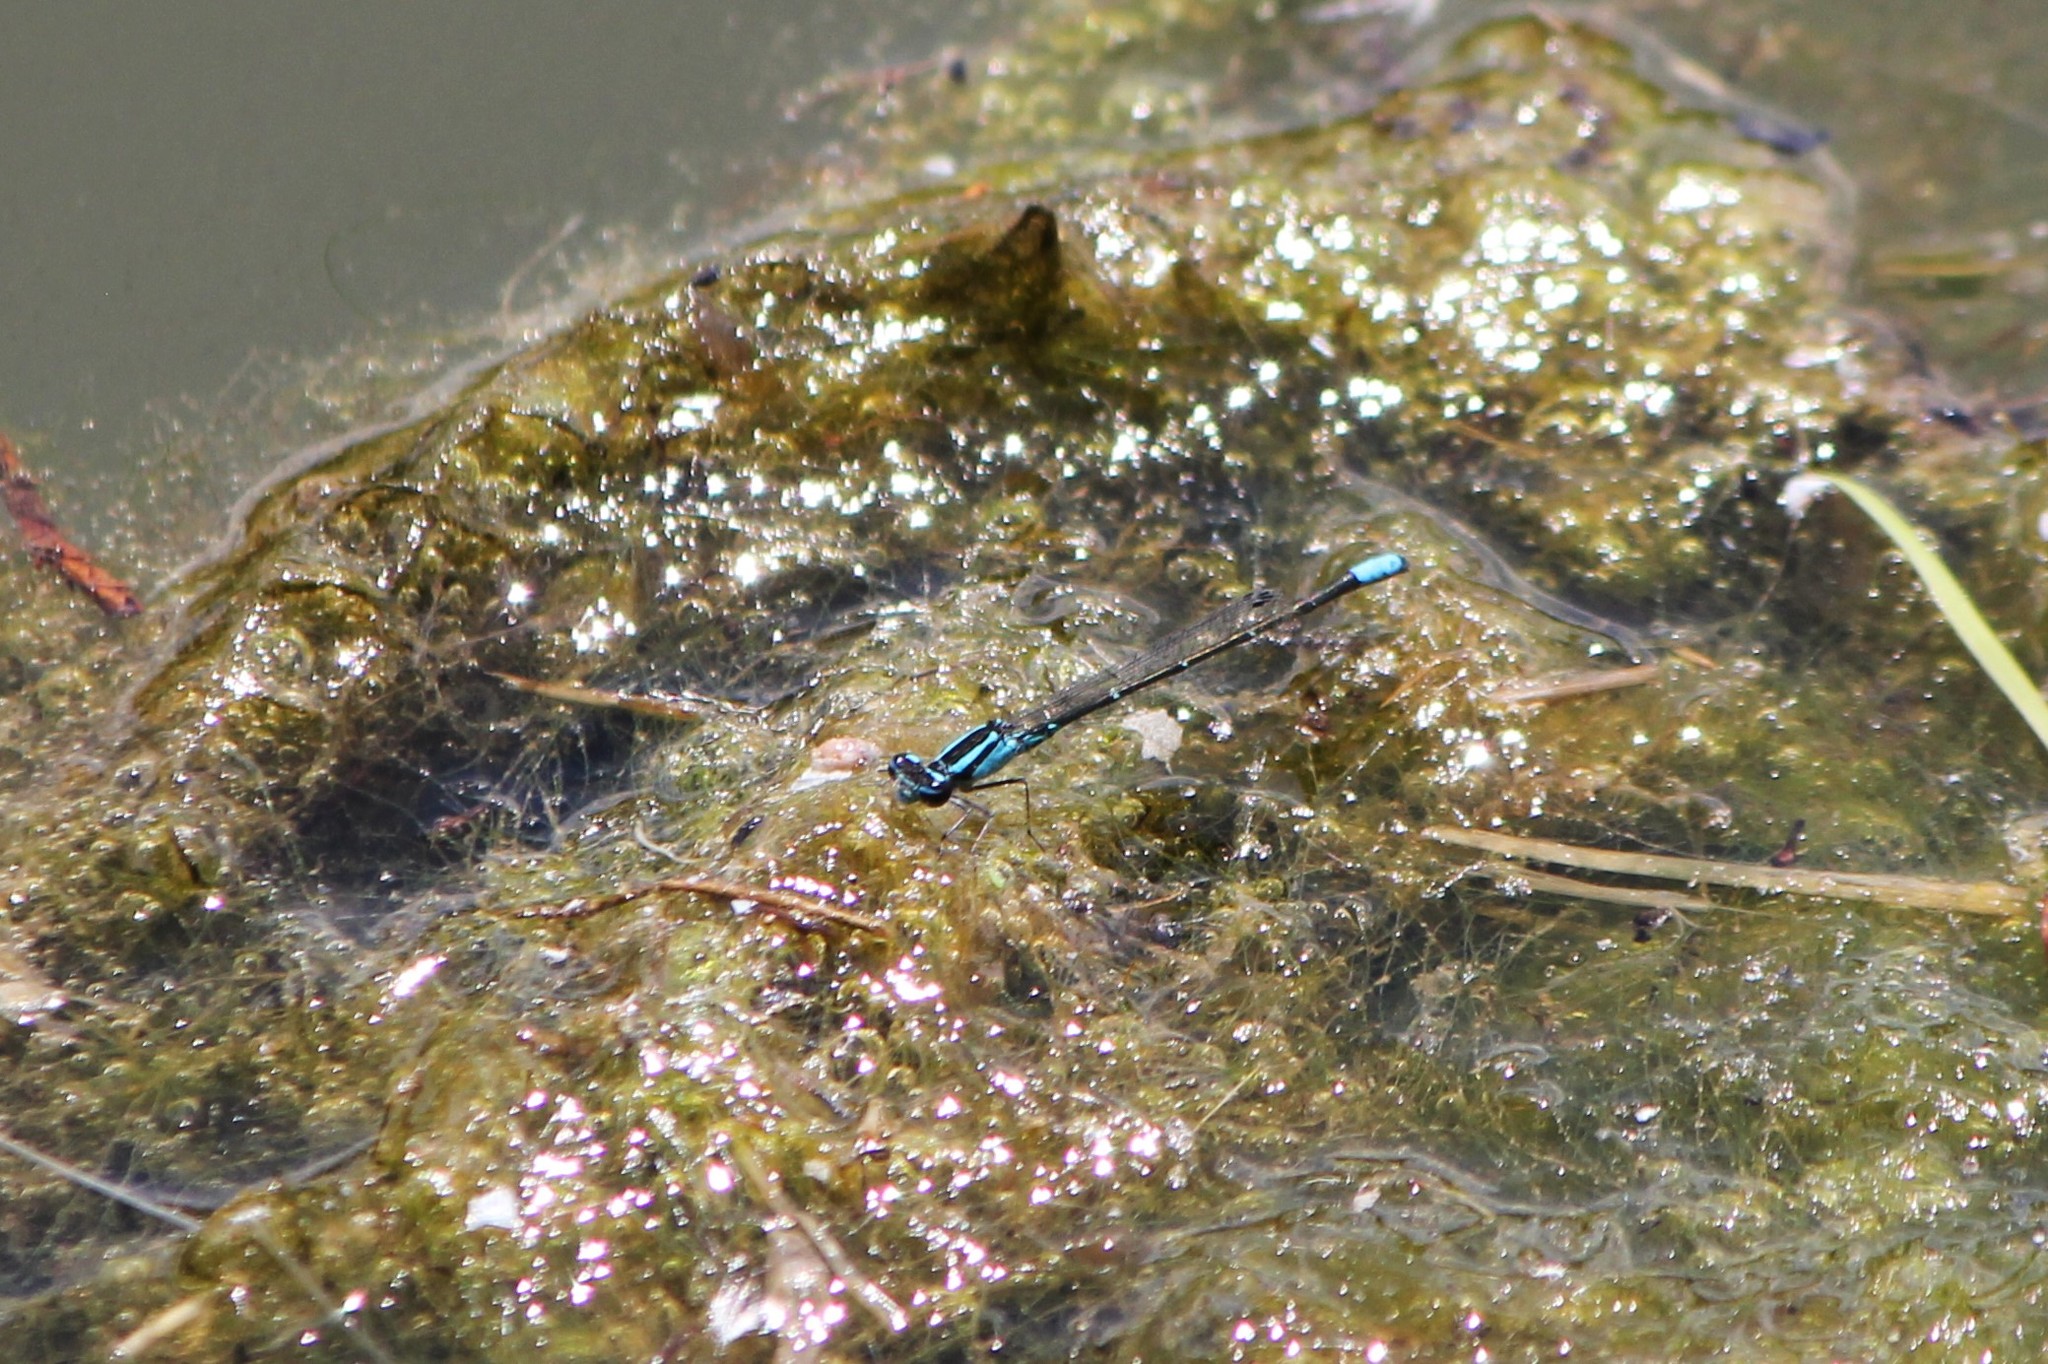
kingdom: Animalia
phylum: Arthropoda
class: Insecta
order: Odonata
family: Coenagrionidae
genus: Enallagma
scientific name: Enallagma geminatum
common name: Skimming bluet
